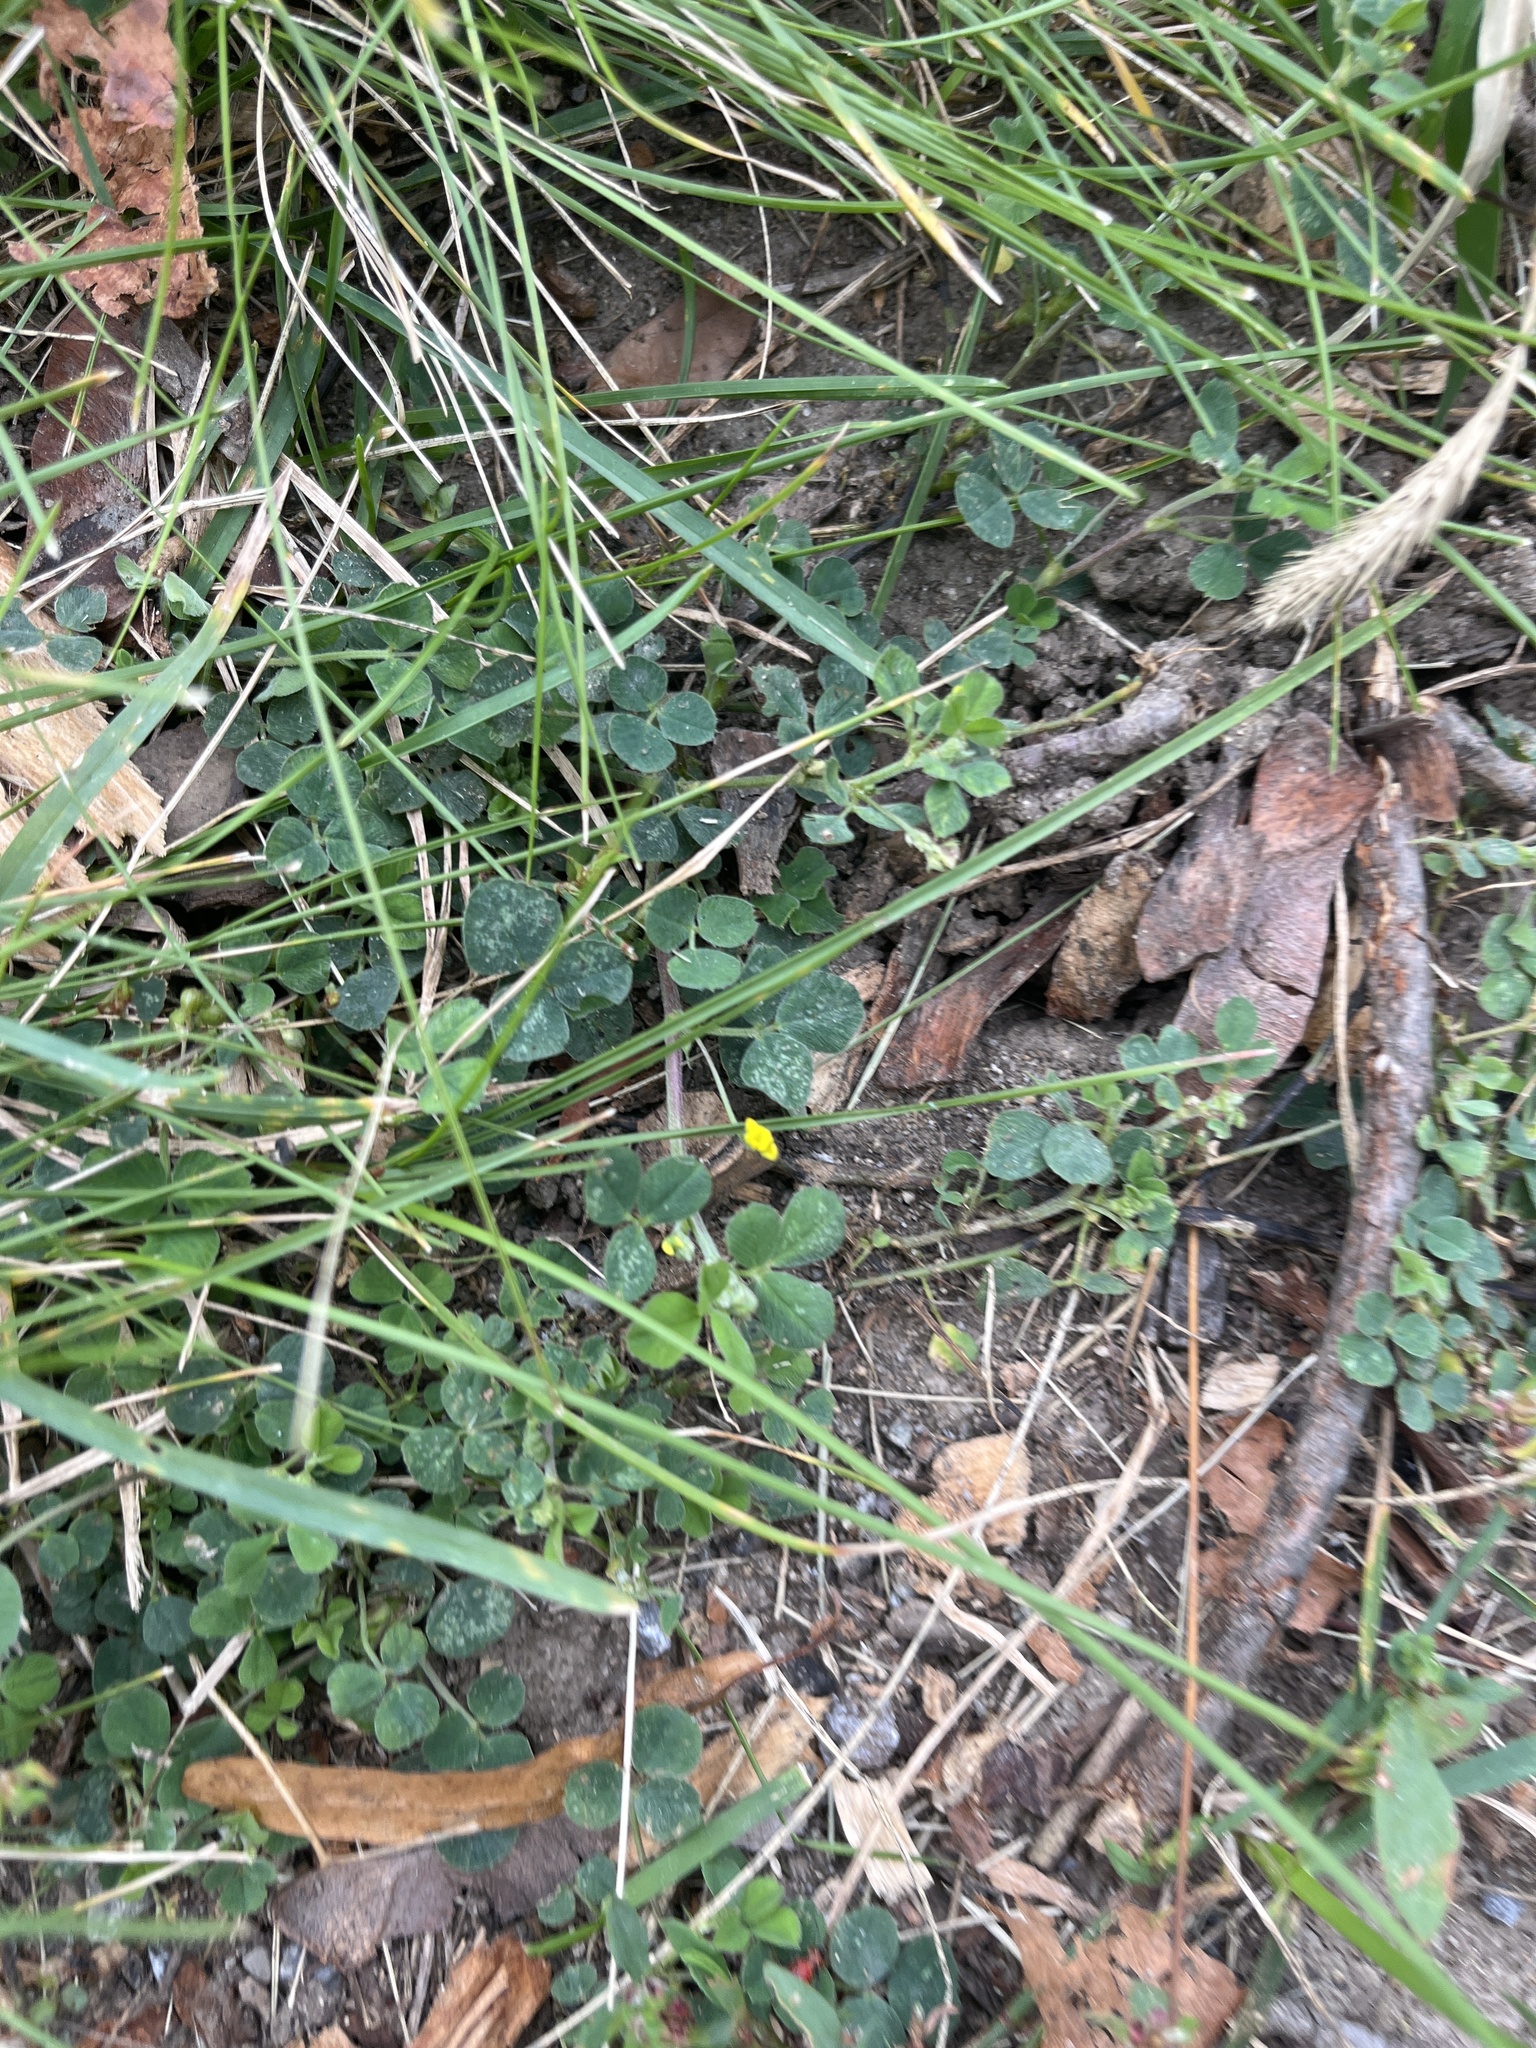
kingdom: Plantae
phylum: Tracheophyta
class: Magnoliopsida
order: Fabales
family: Fabaceae
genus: Medicago
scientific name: Medicago lupulina
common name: Black medick
